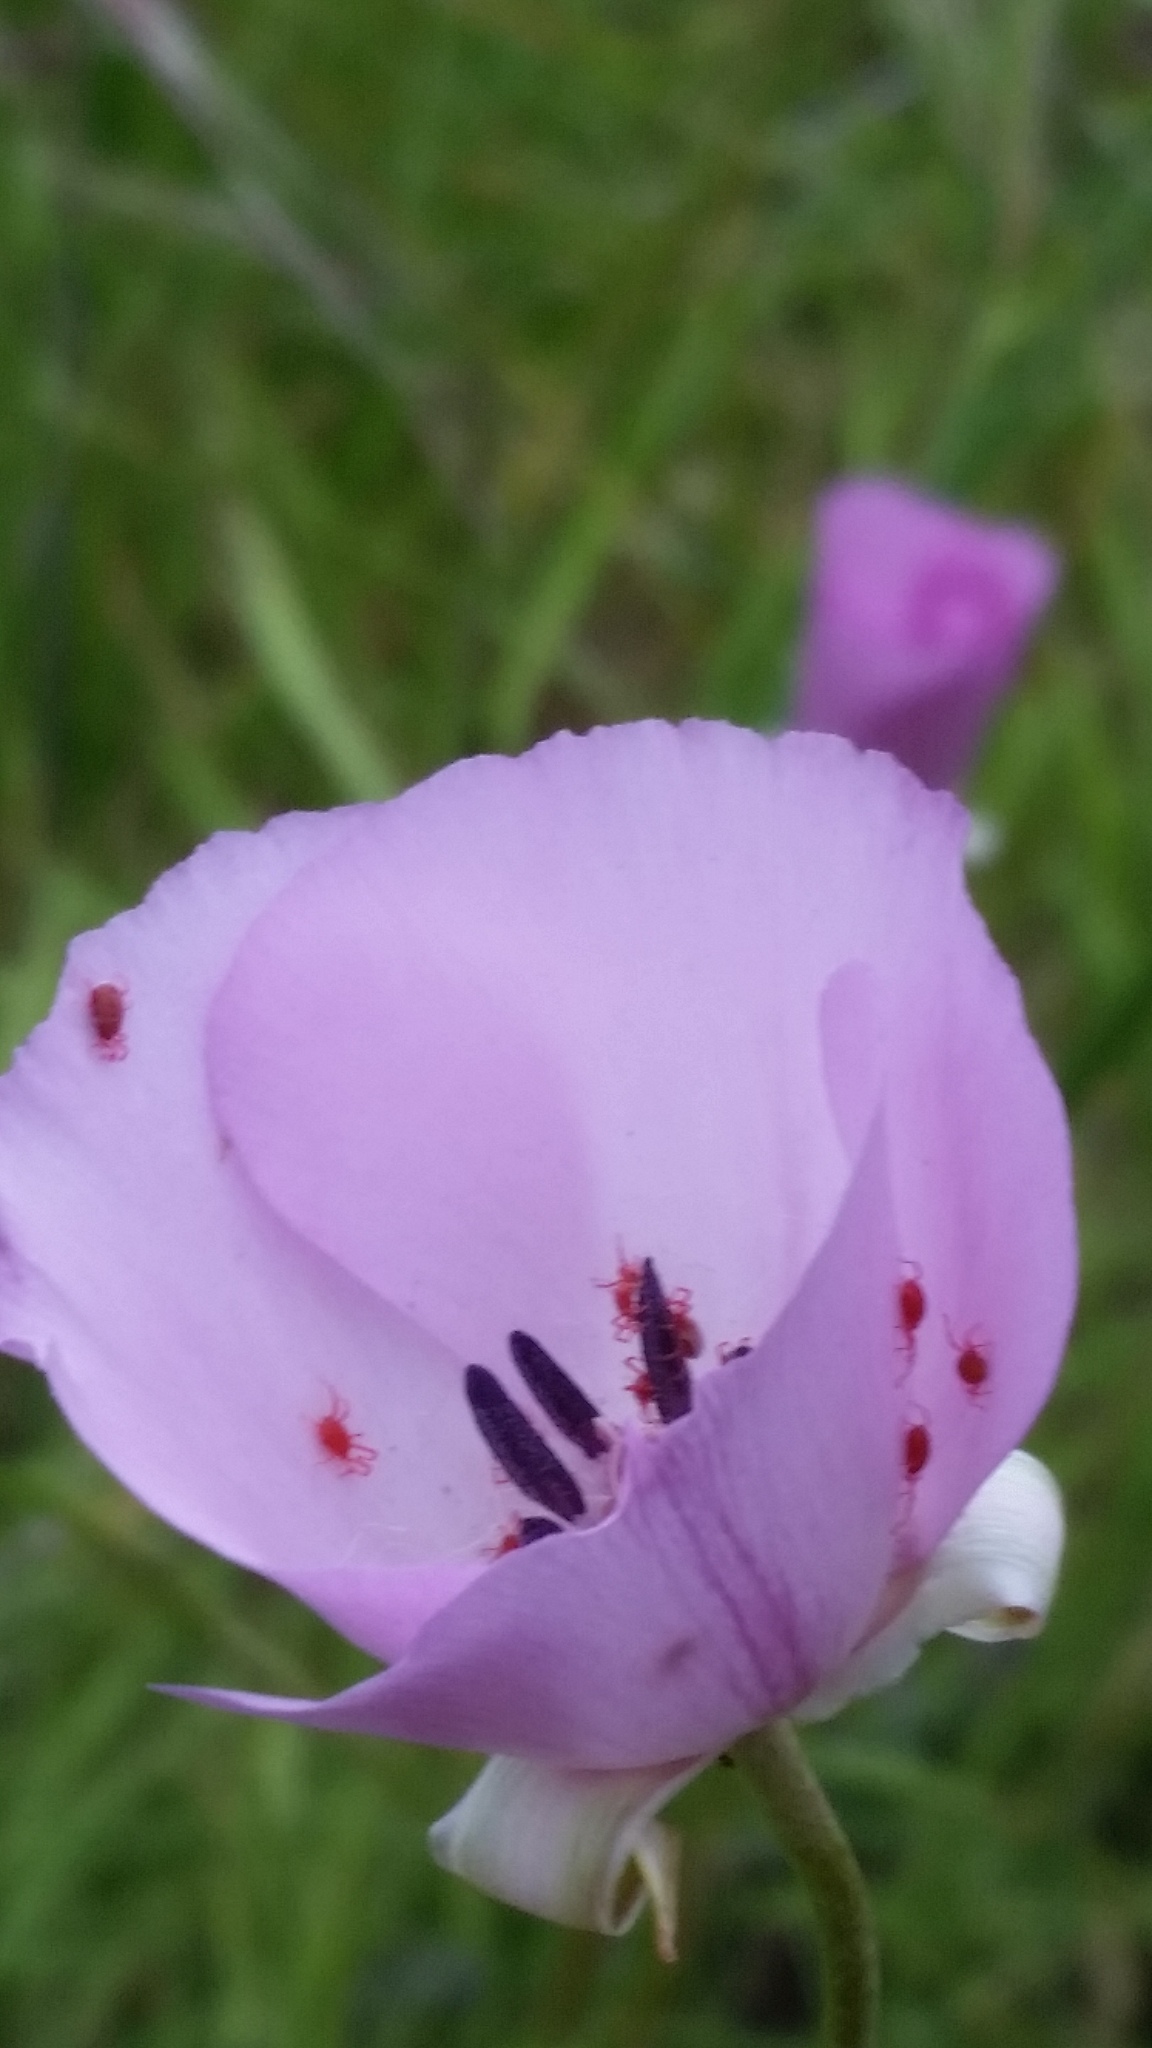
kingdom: Plantae
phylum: Tracheophyta
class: Liliopsida
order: Liliales
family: Liliaceae
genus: Calochortus
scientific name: Calochortus splendens
